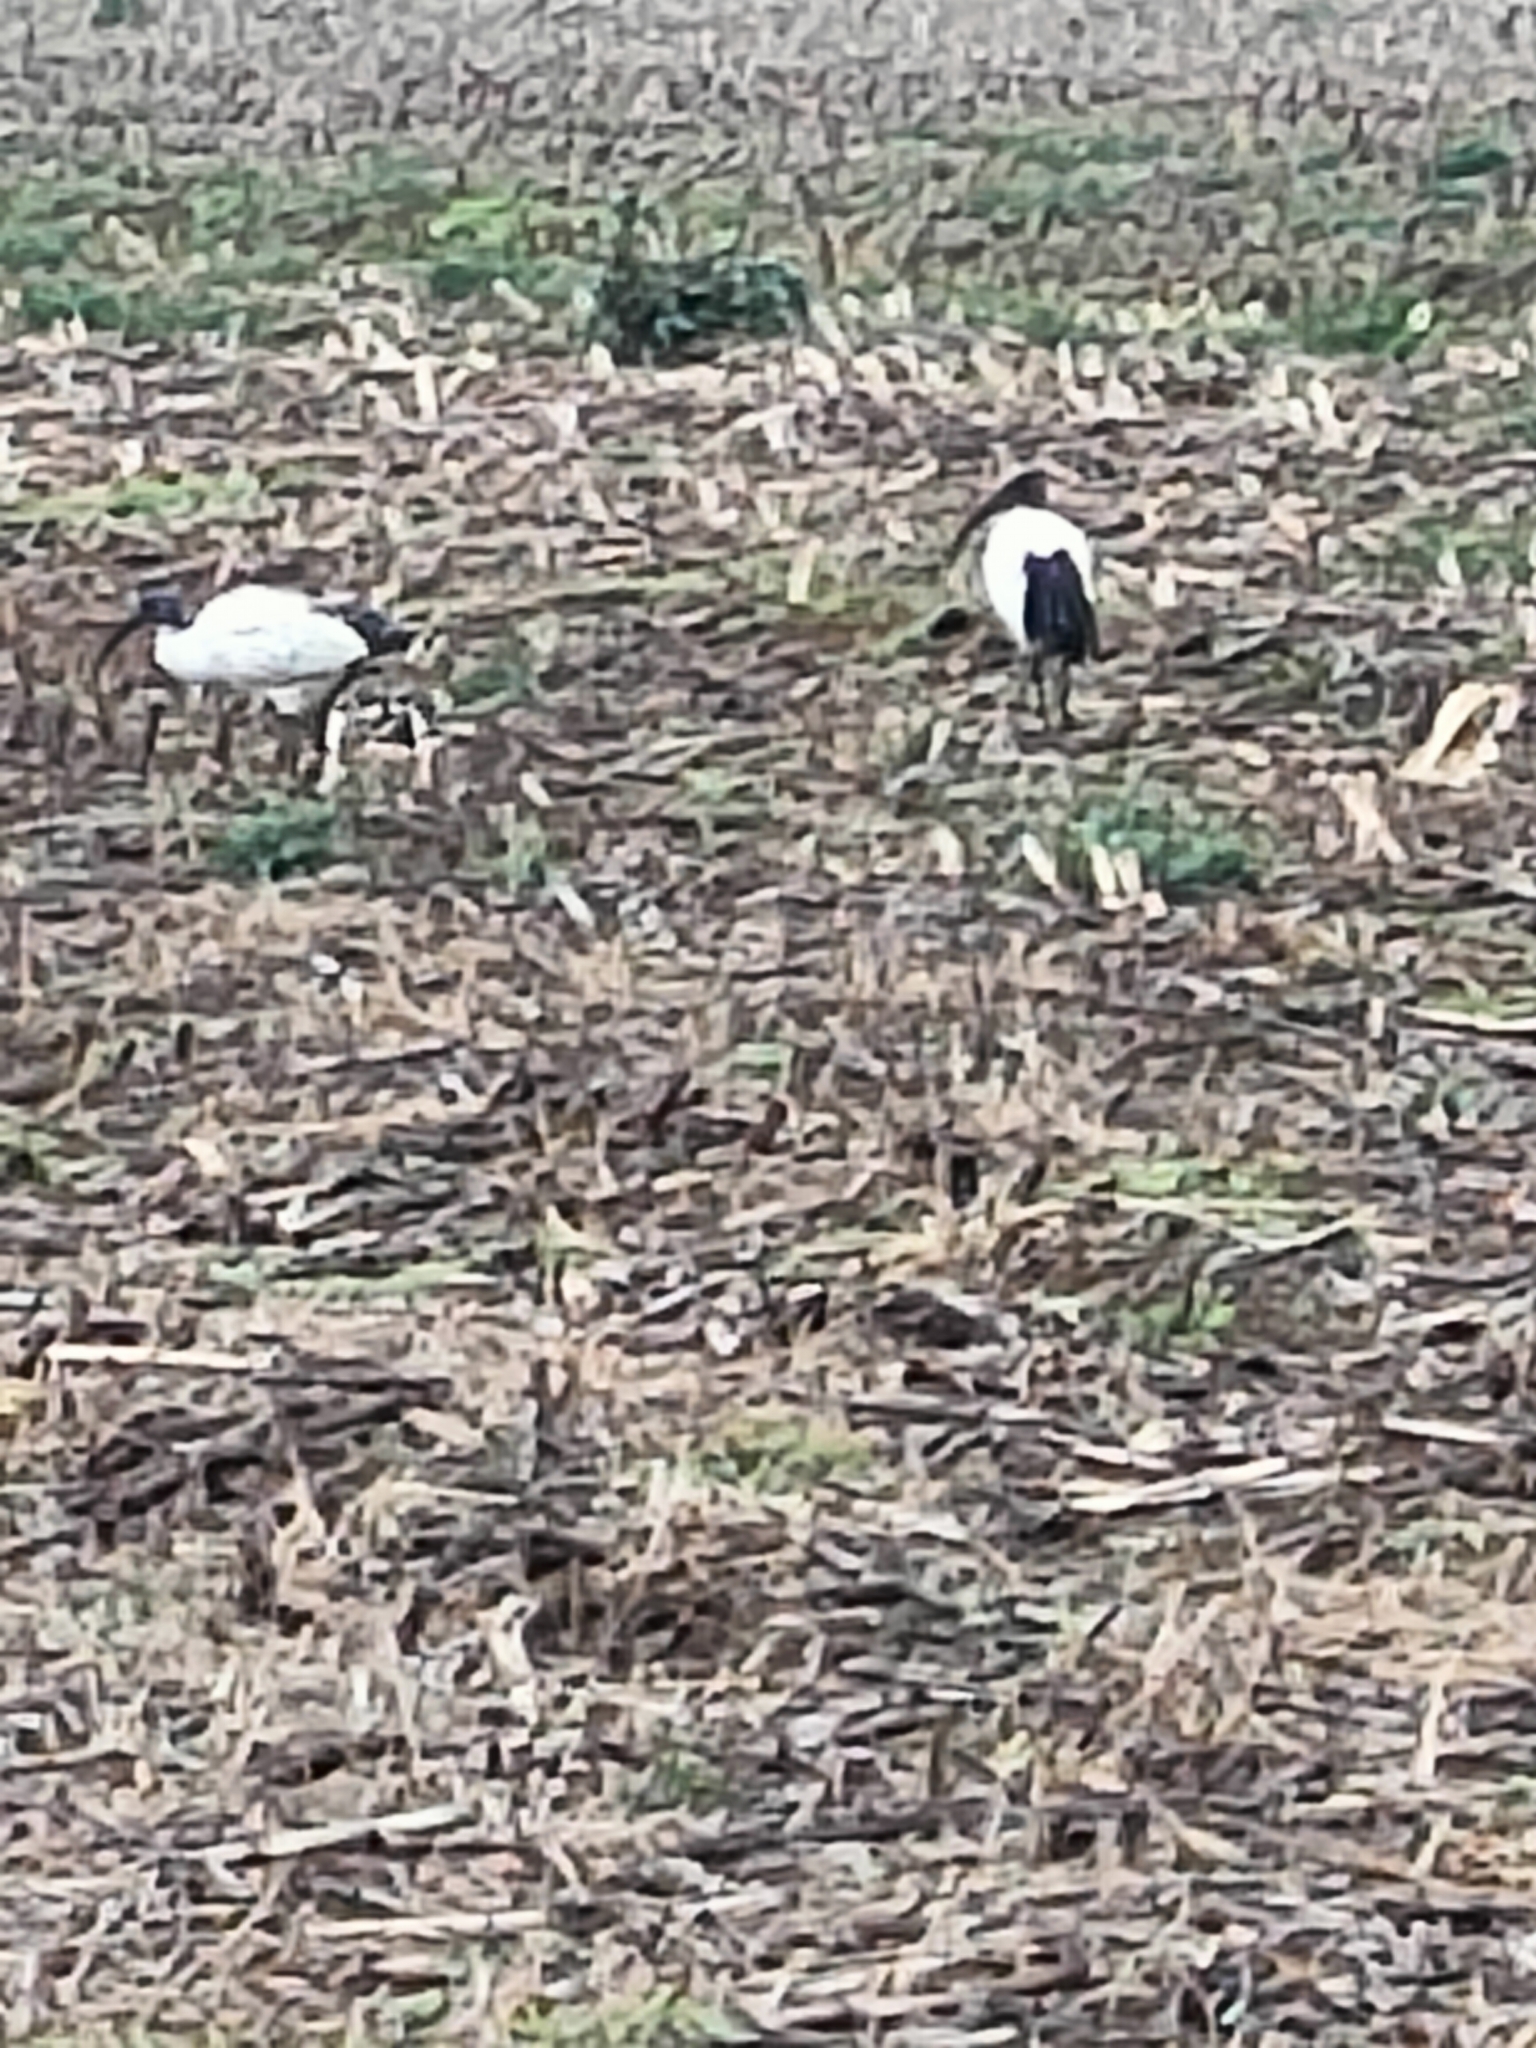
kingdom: Animalia
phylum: Chordata
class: Aves
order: Pelecaniformes
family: Threskiornithidae
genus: Threskiornis
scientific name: Threskiornis aethiopicus
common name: Sacred ibis
